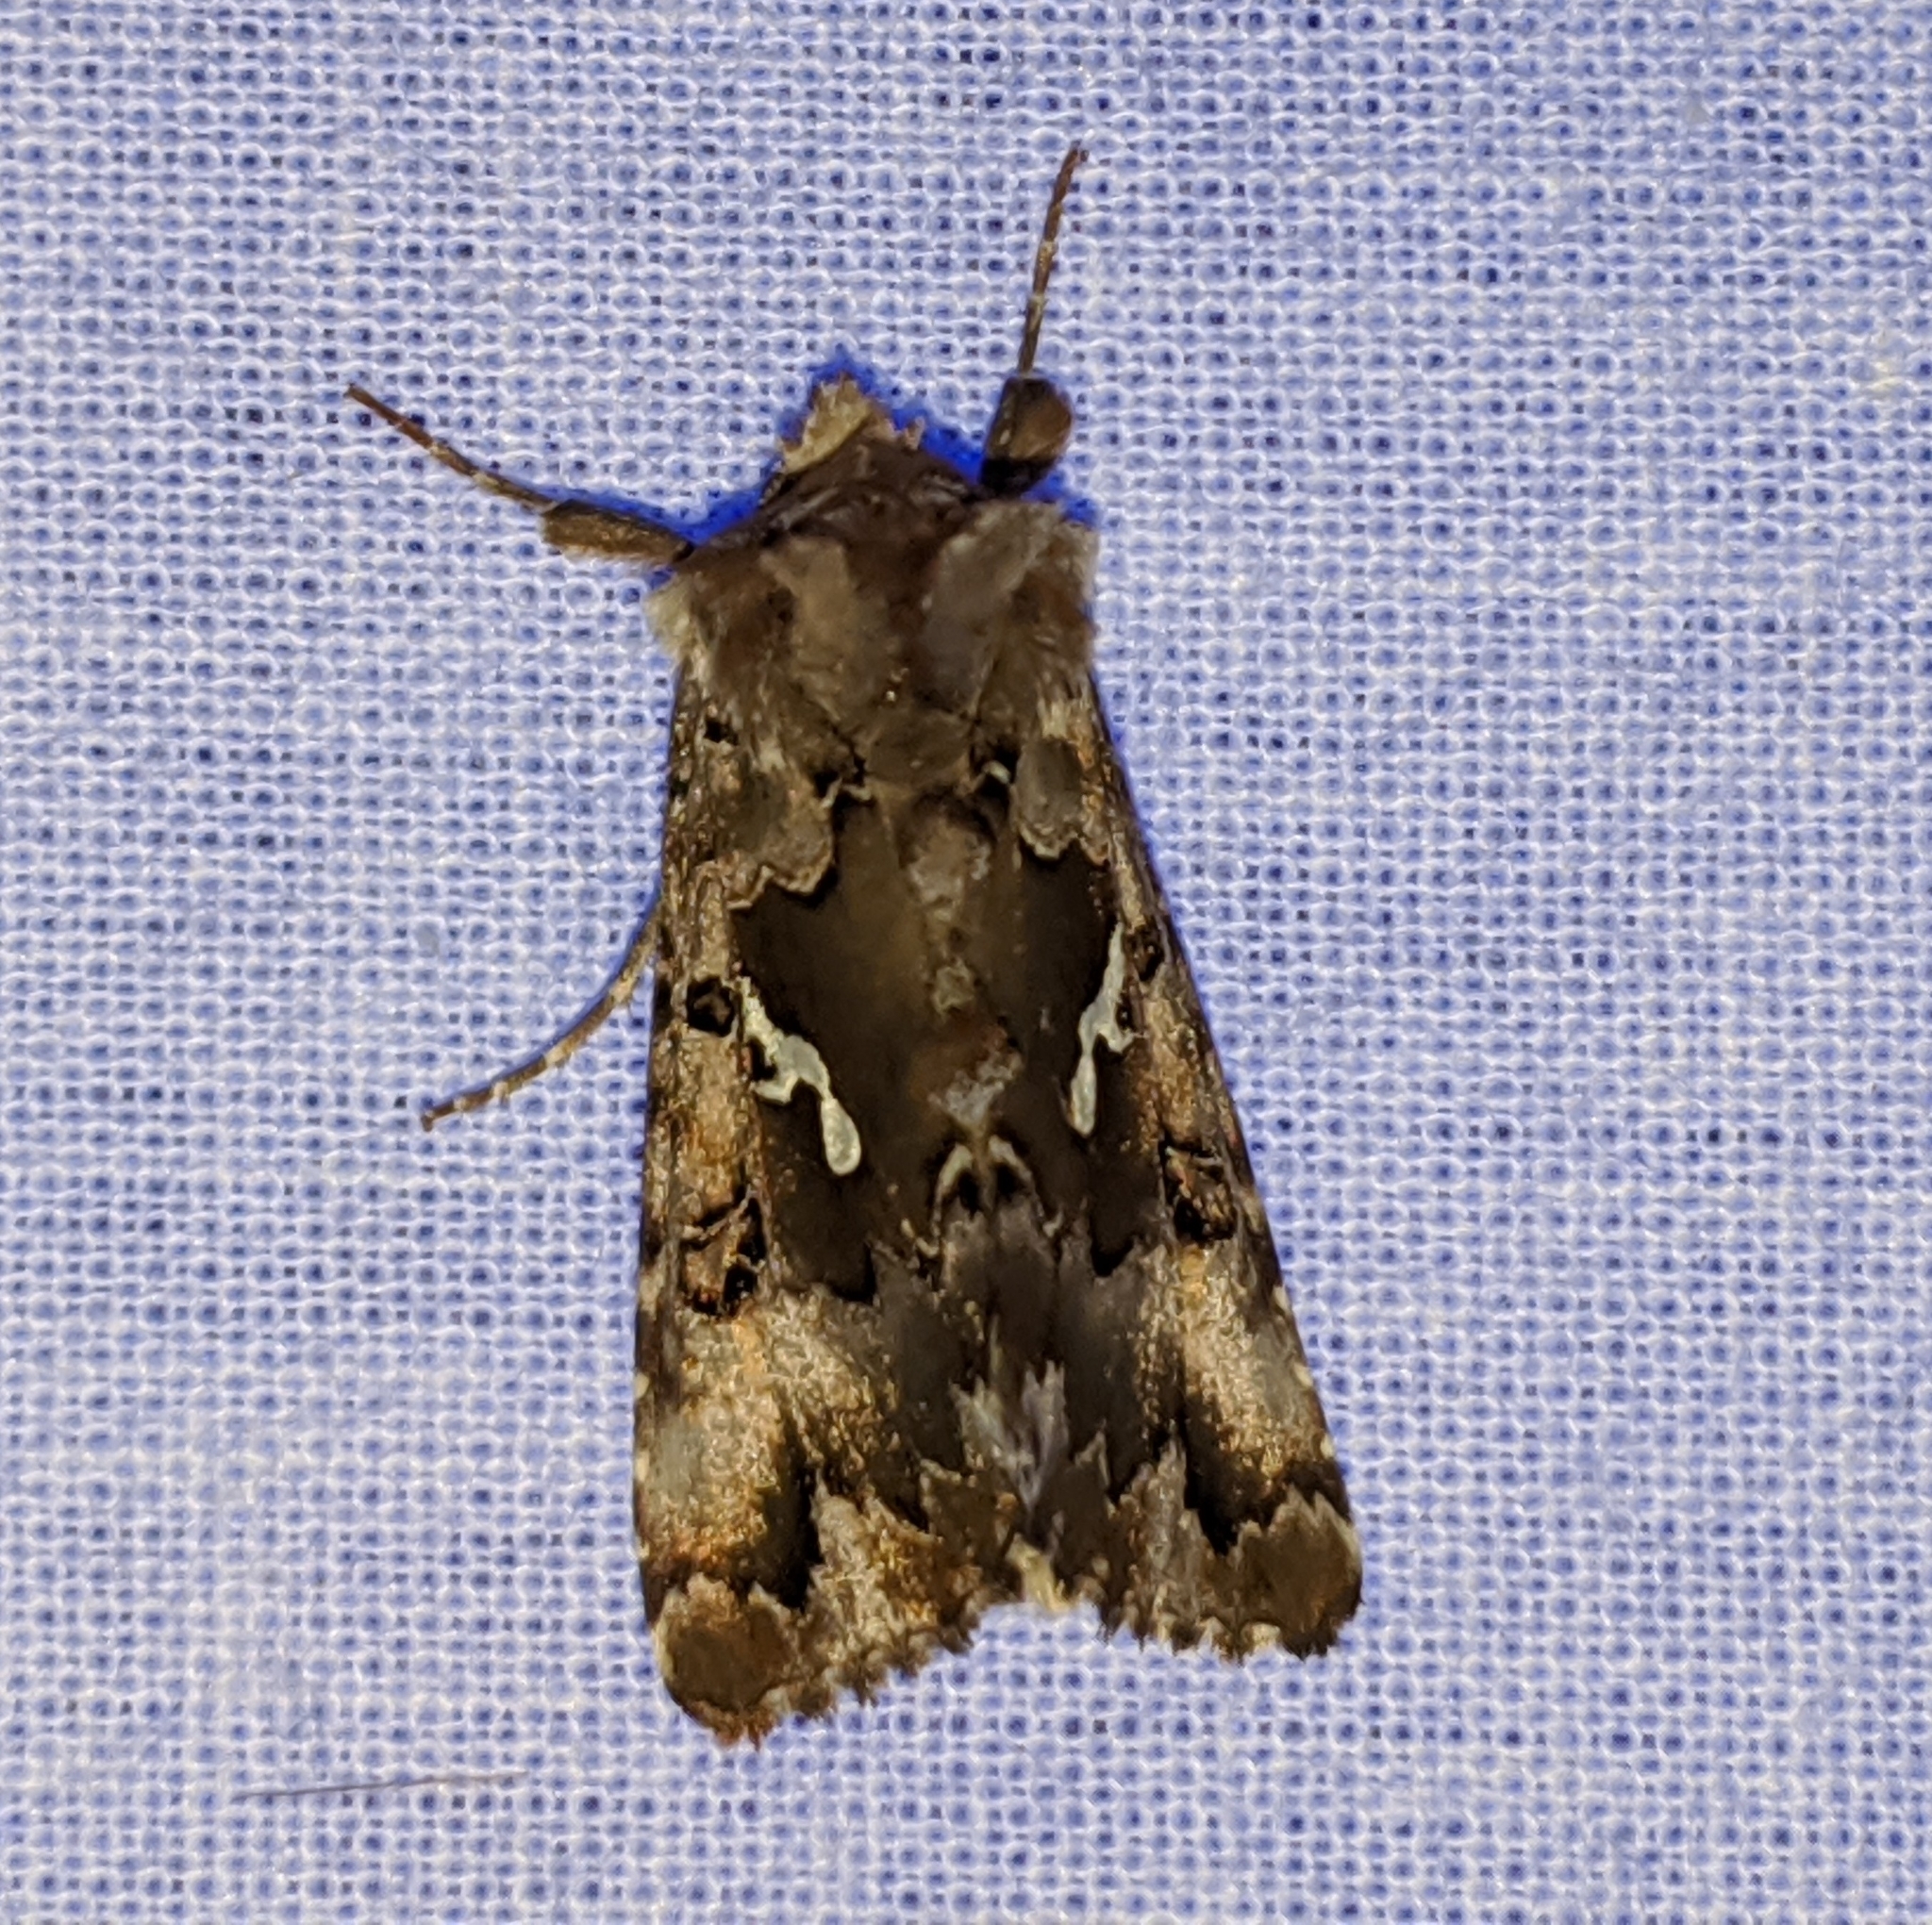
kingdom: Animalia
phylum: Arthropoda
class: Insecta
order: Lepidoptera
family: Noctuidae
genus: Autographa
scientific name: Autographa corusca
